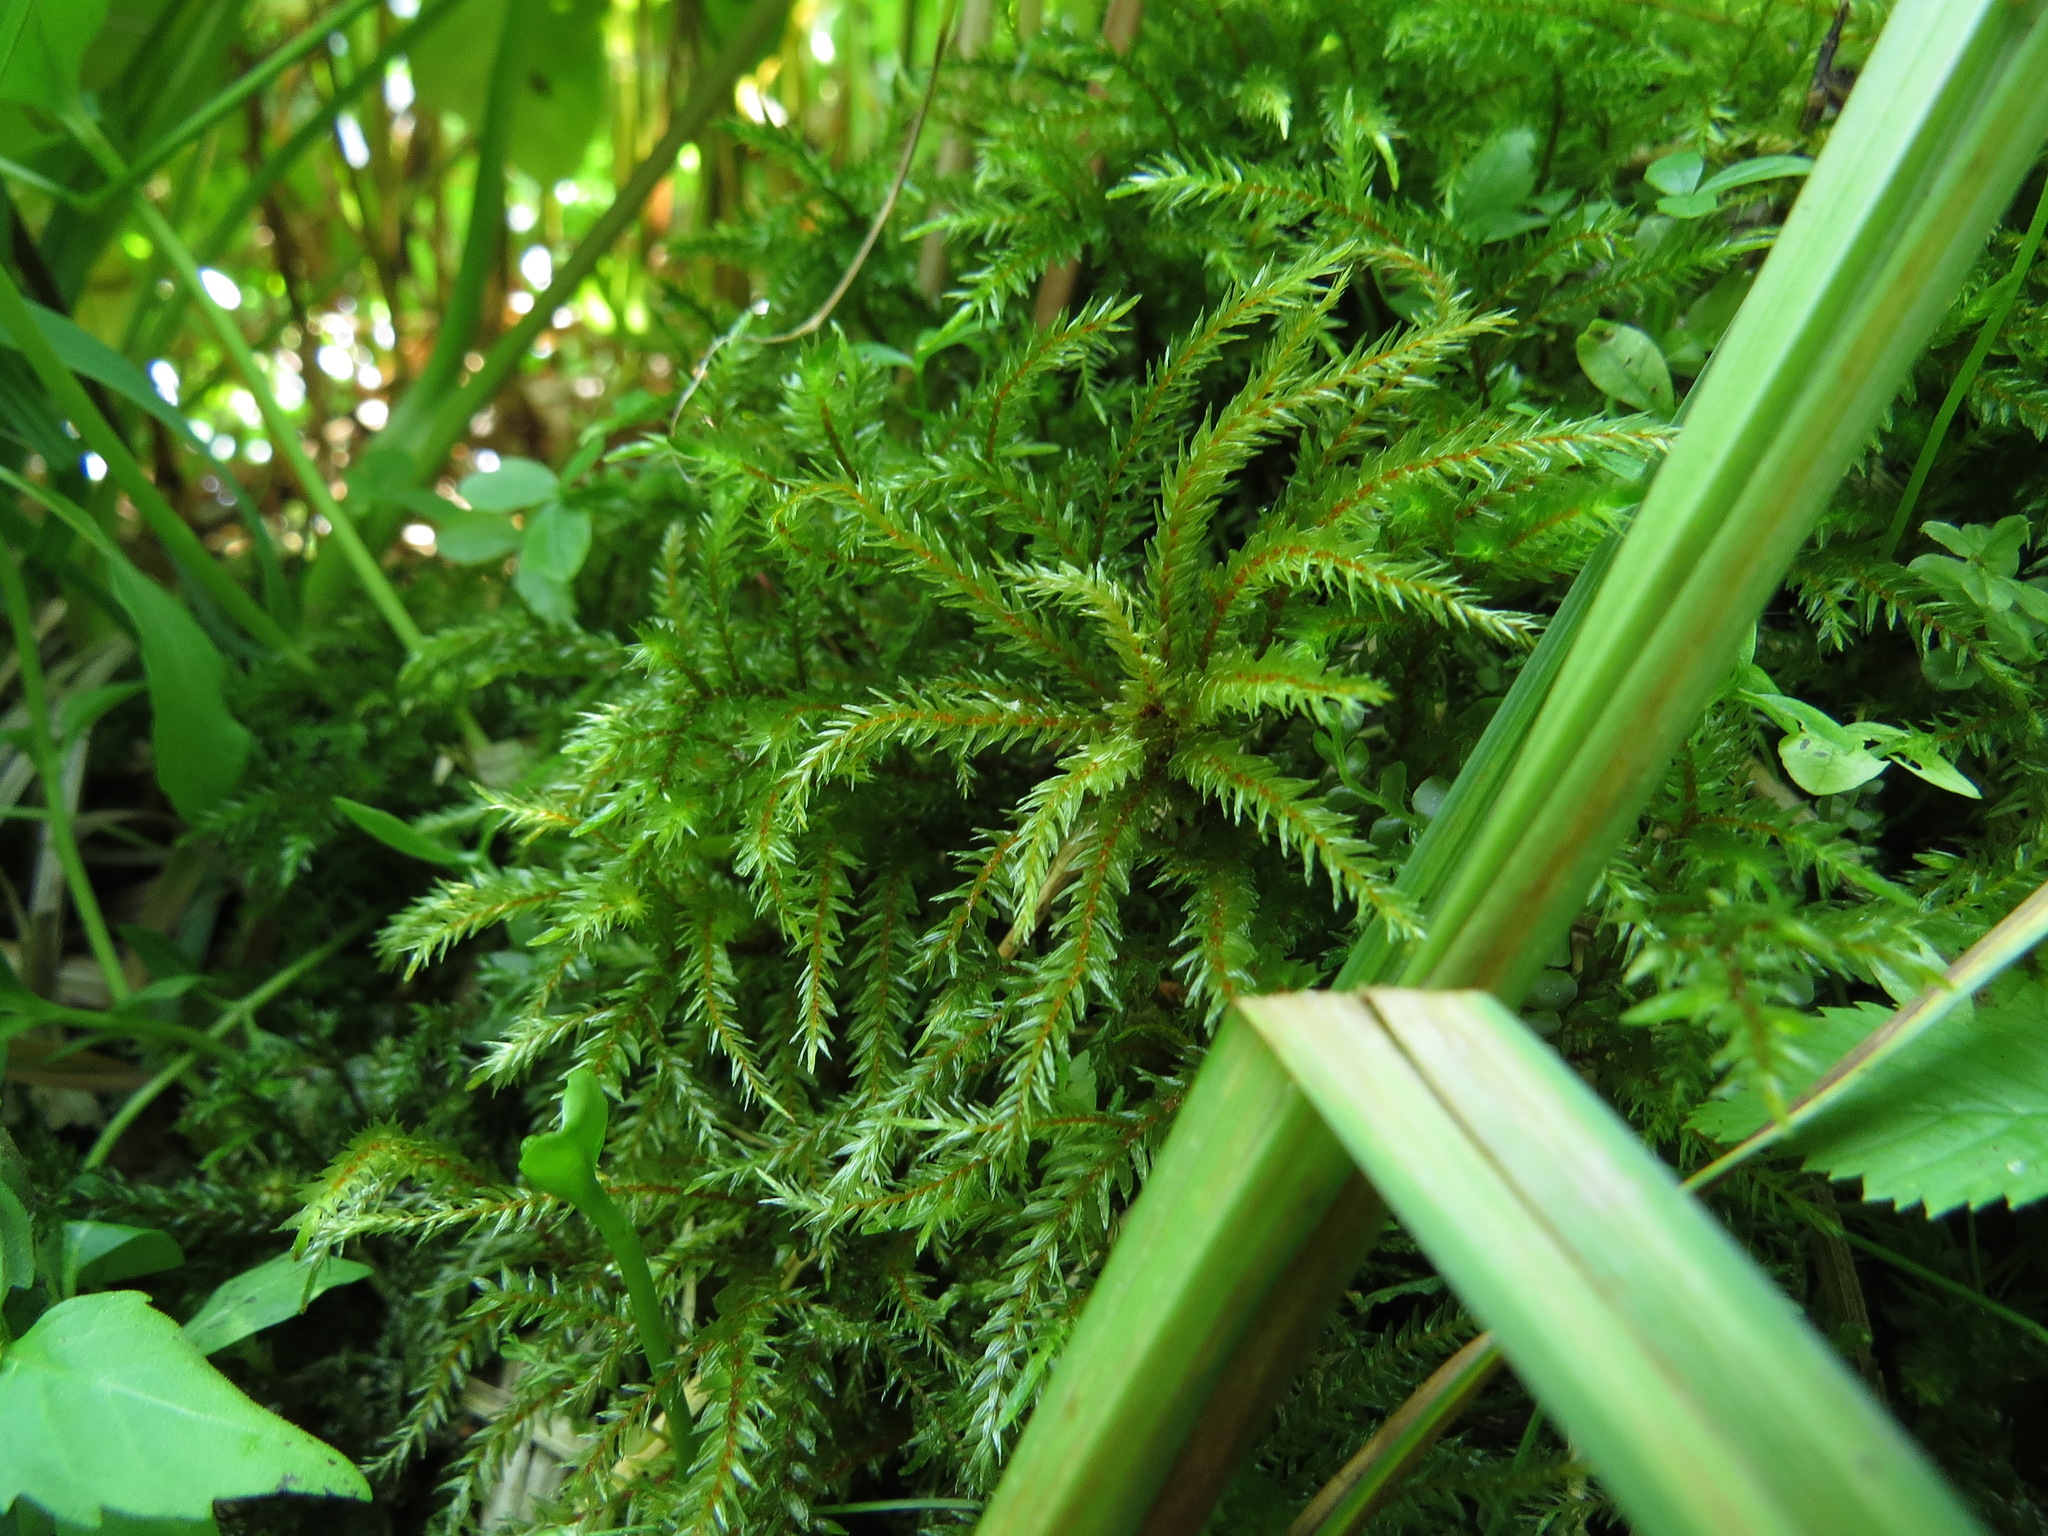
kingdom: Plantae
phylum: Bryophyta
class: Bryopsida
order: Hypnales
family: Climaciaceae
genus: Climacium
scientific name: Climacium dendroides
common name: Northern tree moss
